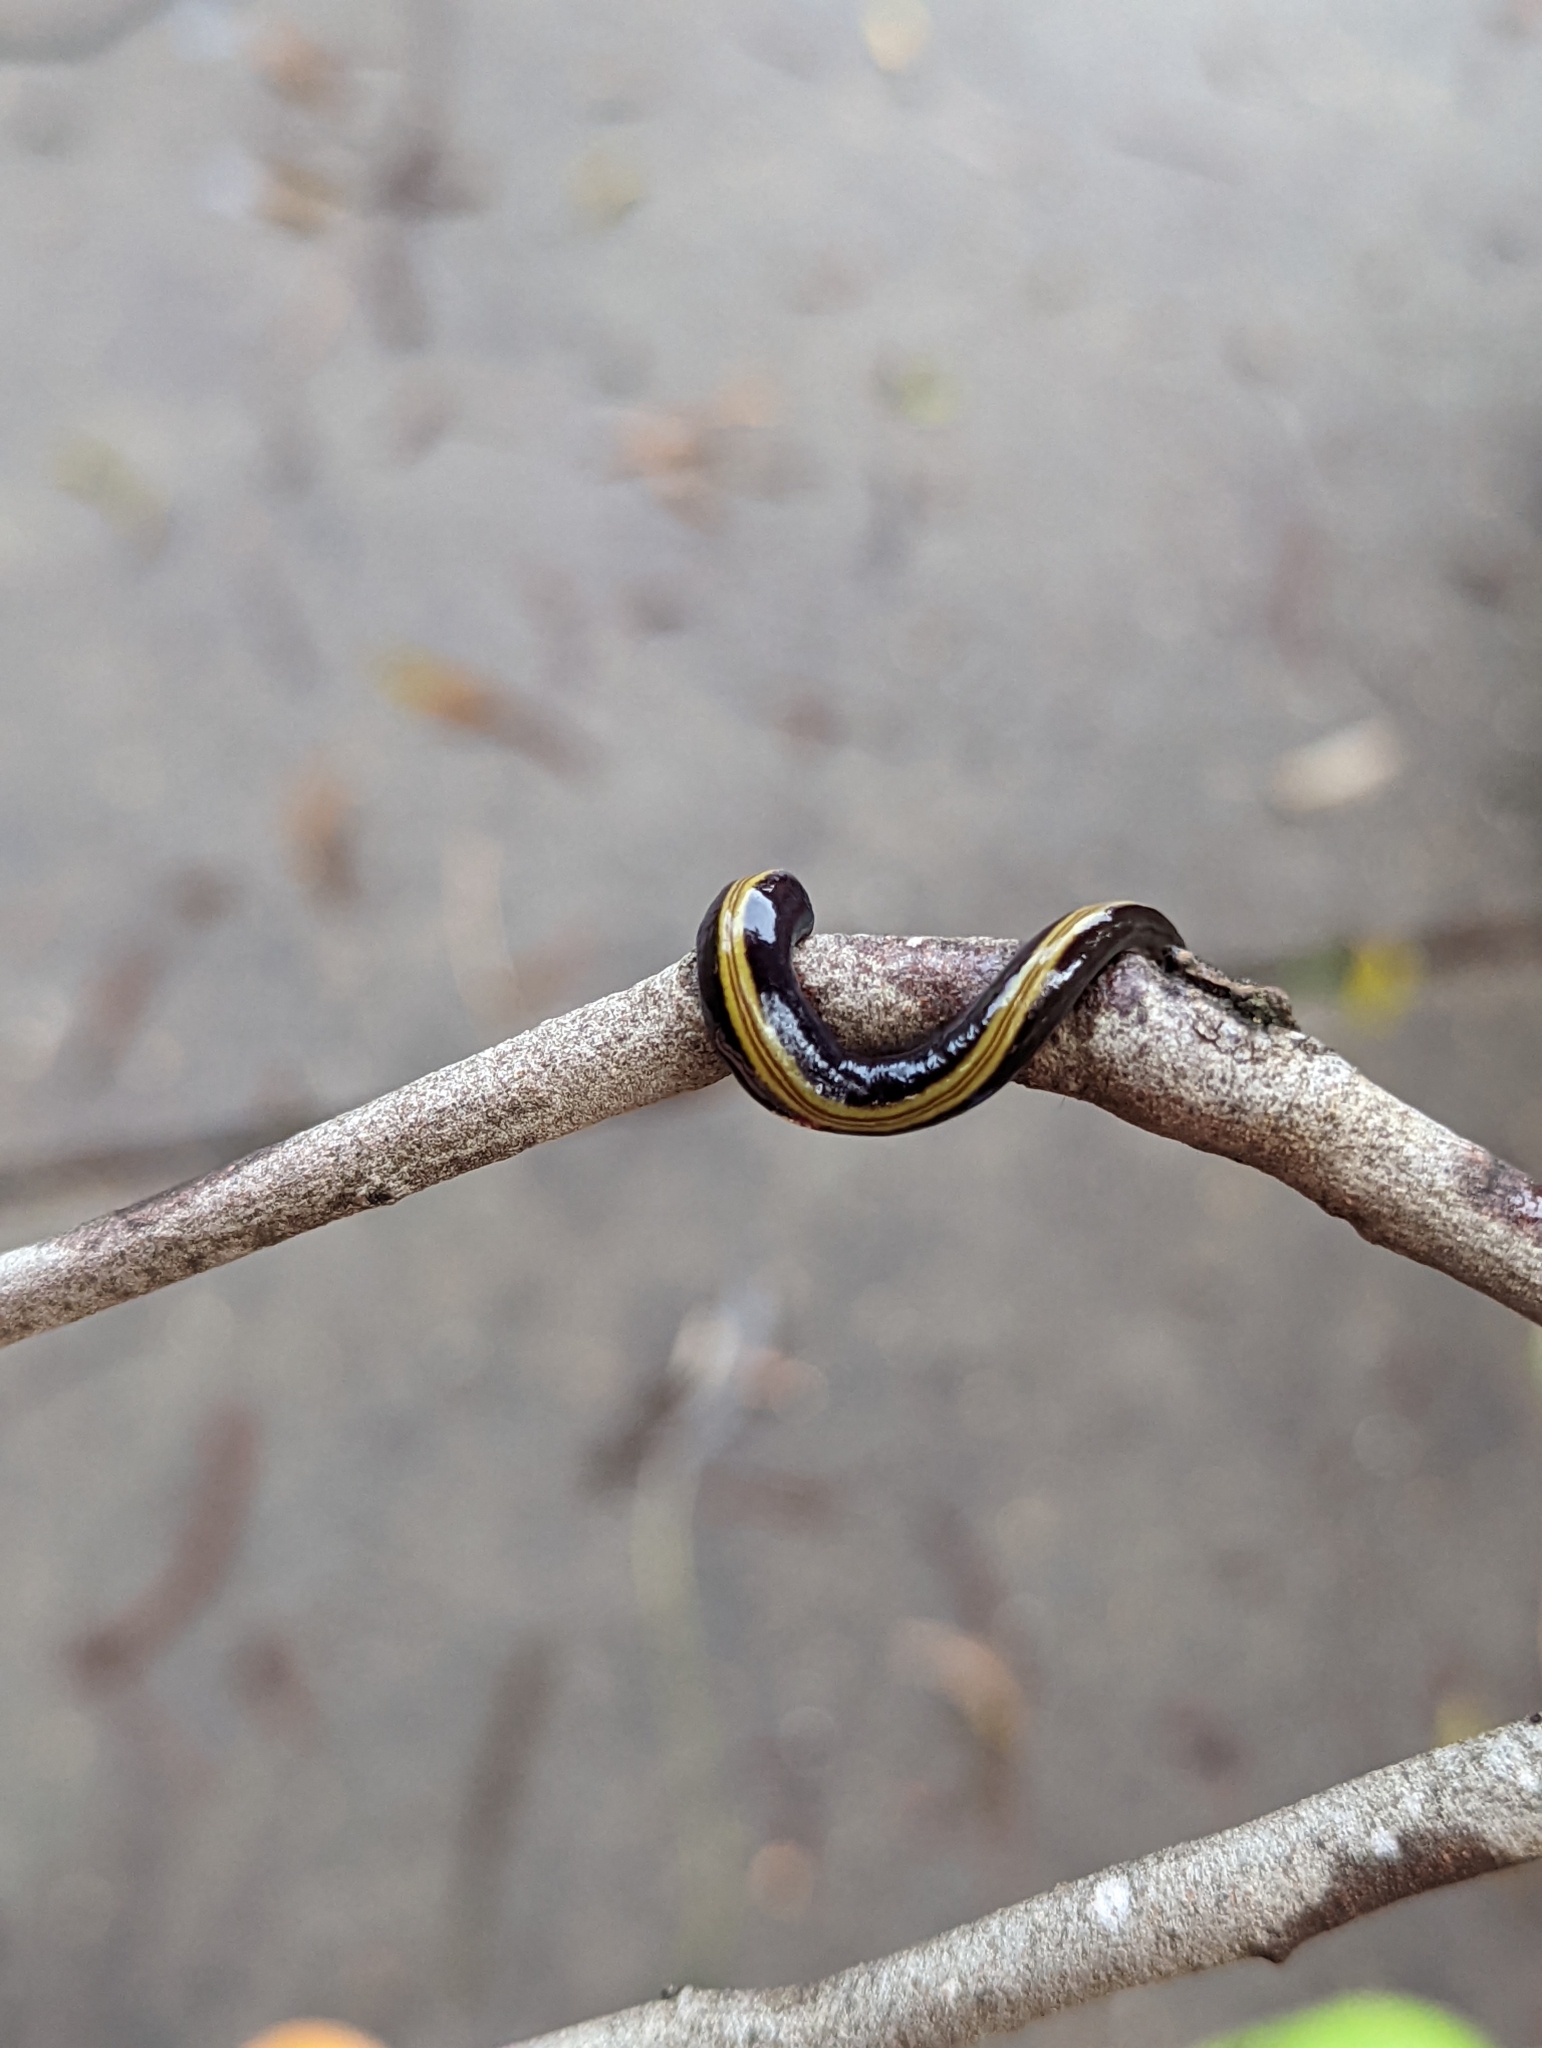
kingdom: Animalia
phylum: Platyhelminthes
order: Tricladida
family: Geoplanidae
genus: Caenoplana
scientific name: Caenoplana variegata
